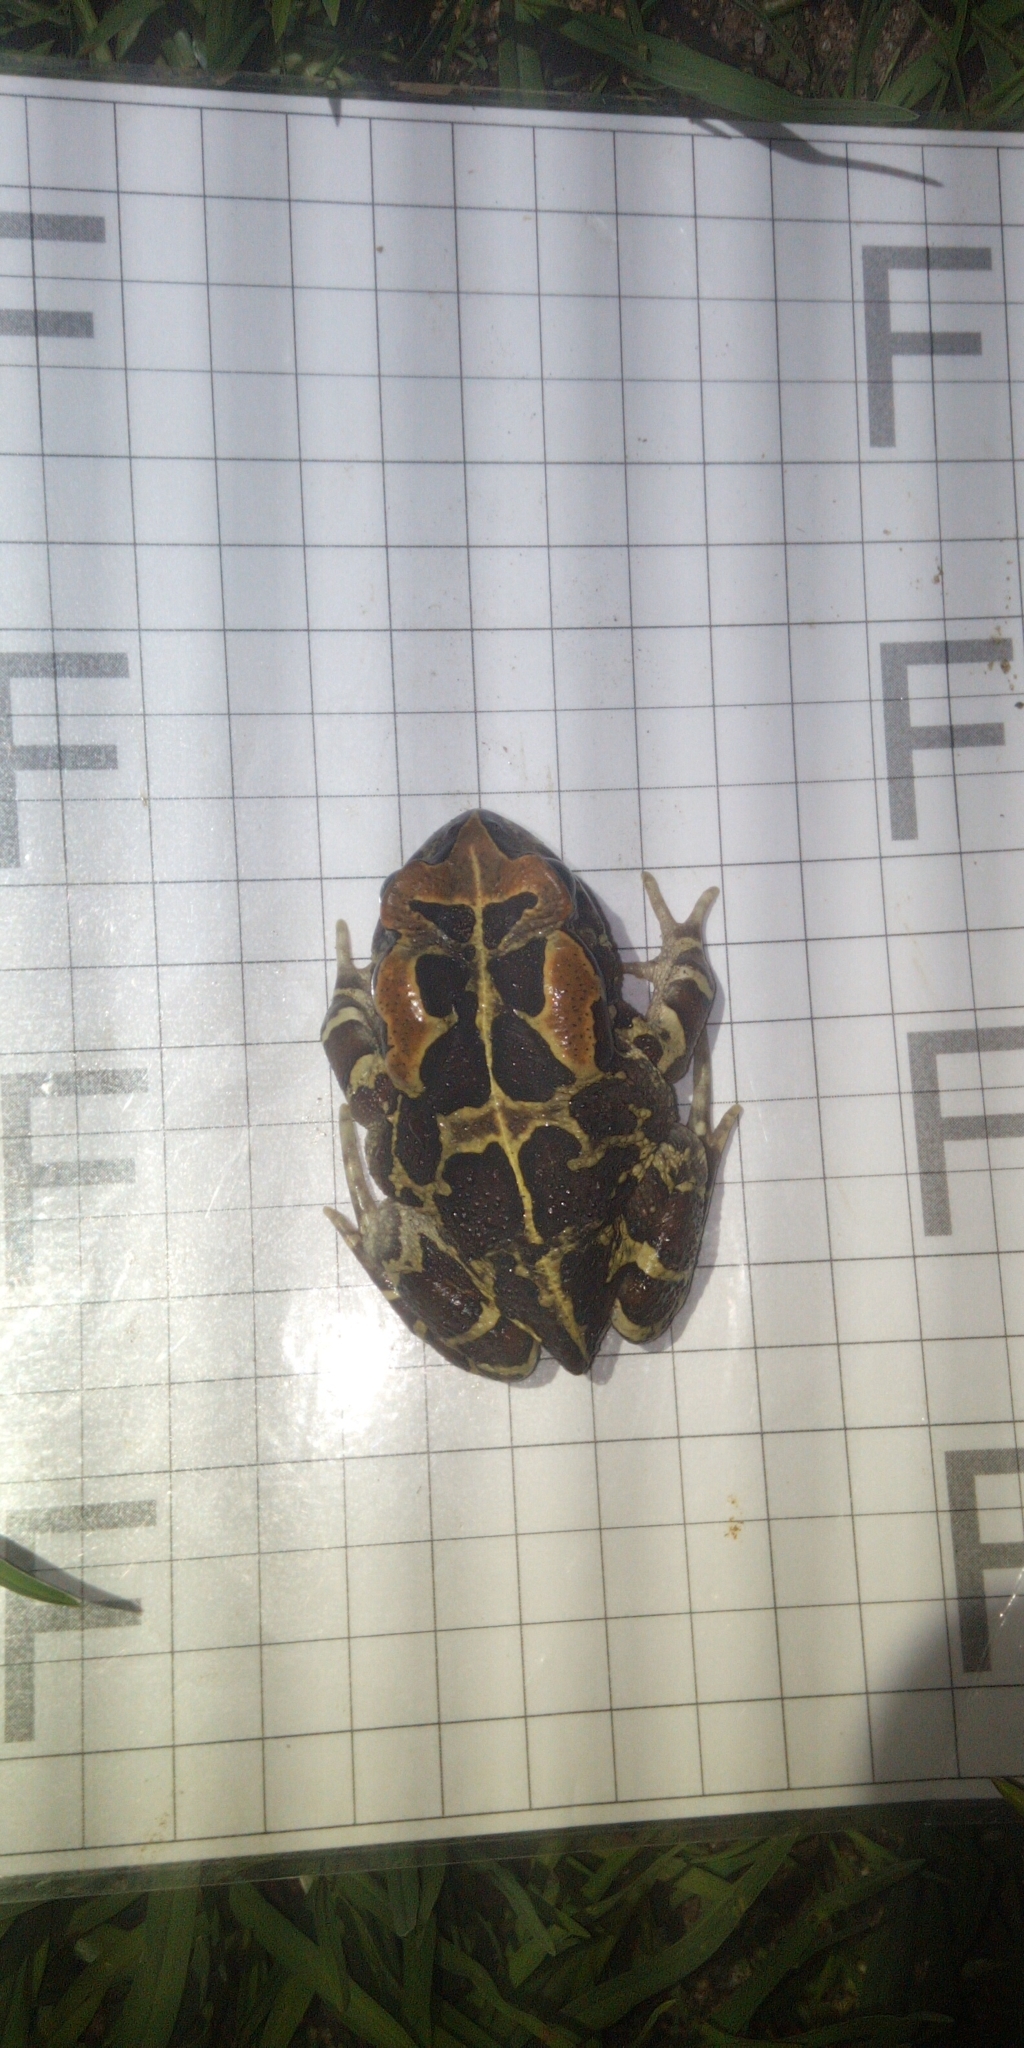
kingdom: Animalia
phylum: Chordata
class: Amphibia
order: Anura
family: Bufonidae
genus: Sclerophrys
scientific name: Sclerophrys pantherina
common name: Panther toad
